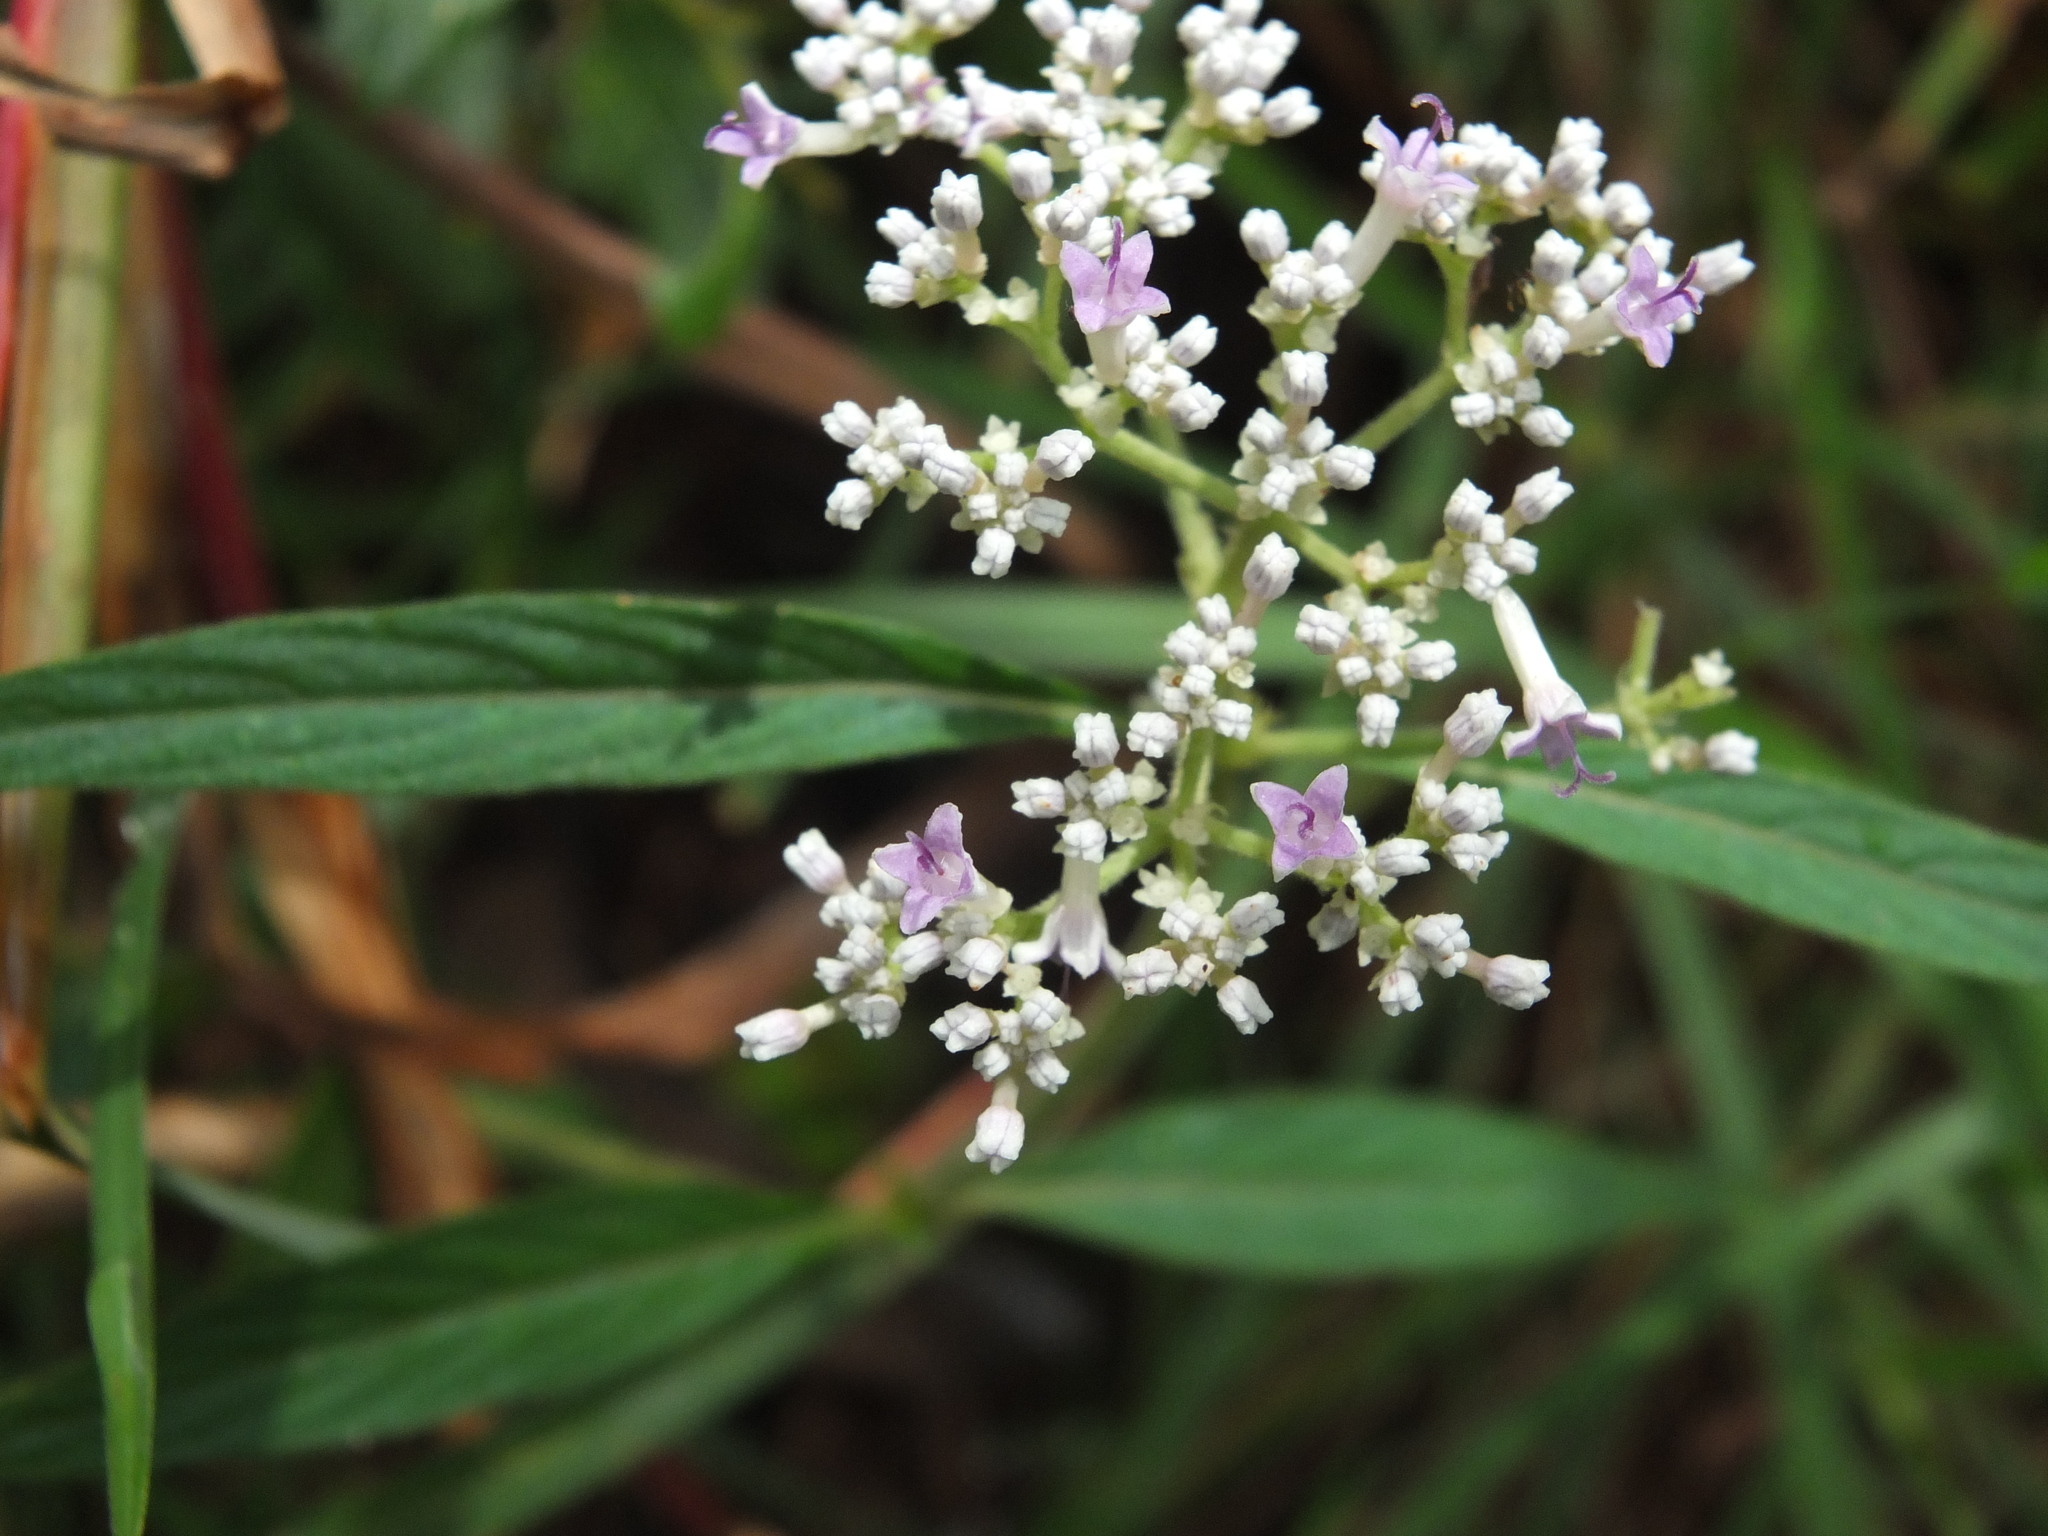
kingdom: Plantae
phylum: Tracheophyta
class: Magnoliopsida
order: Gentianales
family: Rubiaceae
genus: Knoxia
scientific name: Knoxia sumatrensis
